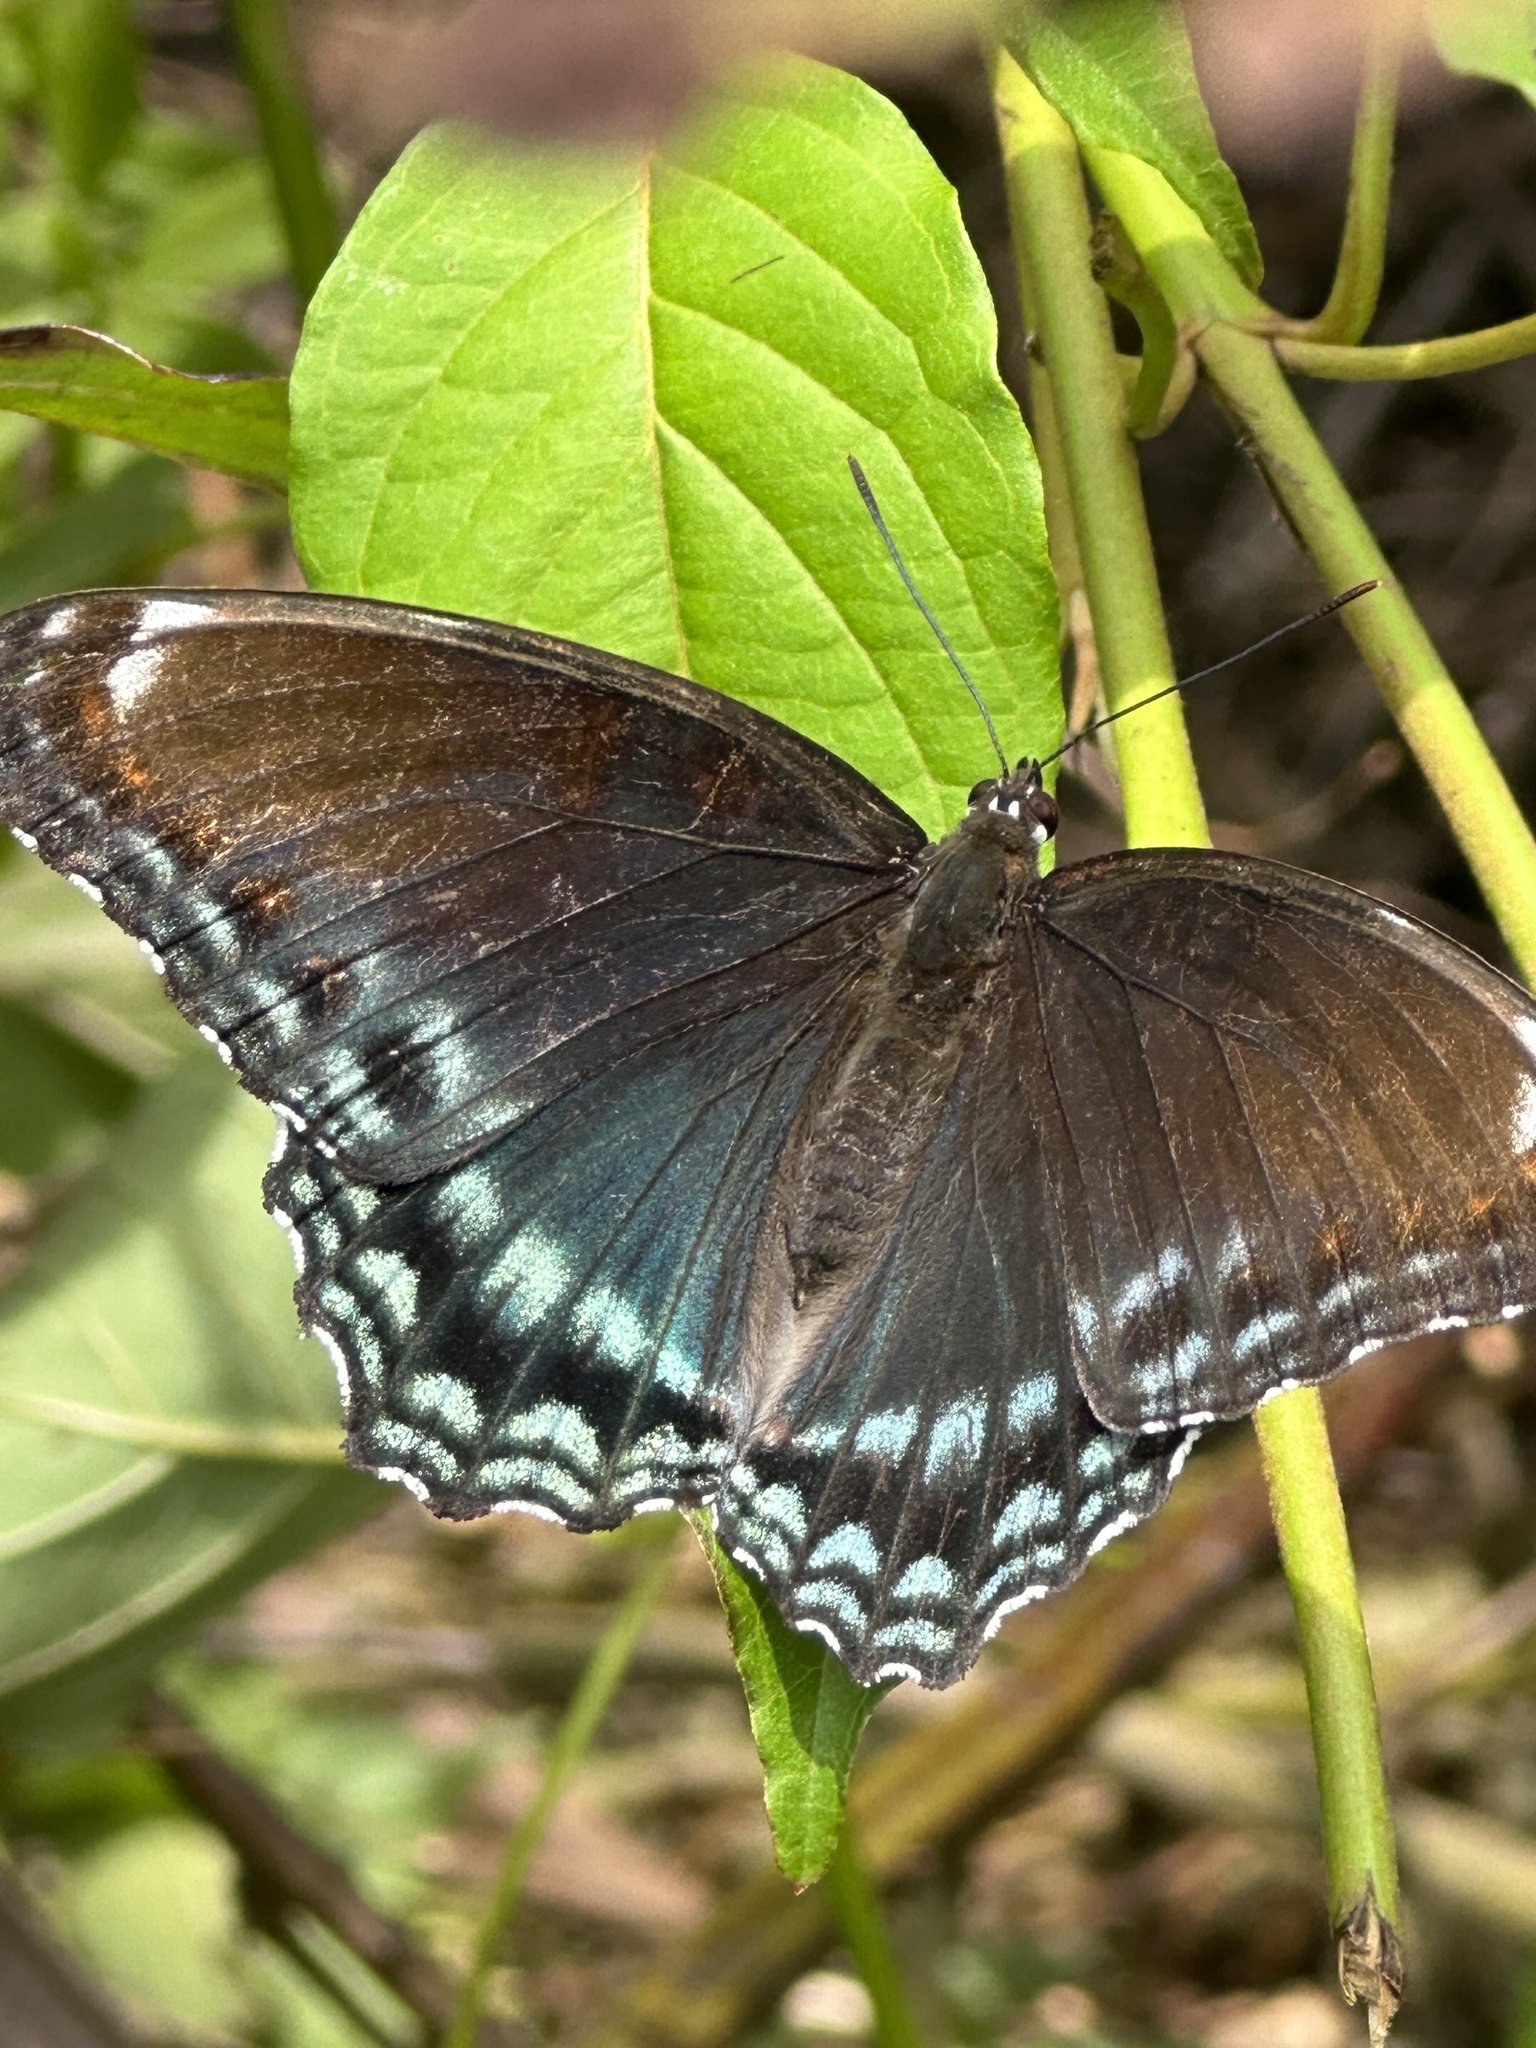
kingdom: Animalia
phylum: Arthropoda
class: Insecta
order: Lepidoptera
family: Nymphalidae
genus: Limenitis
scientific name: Limenitis astyanax
